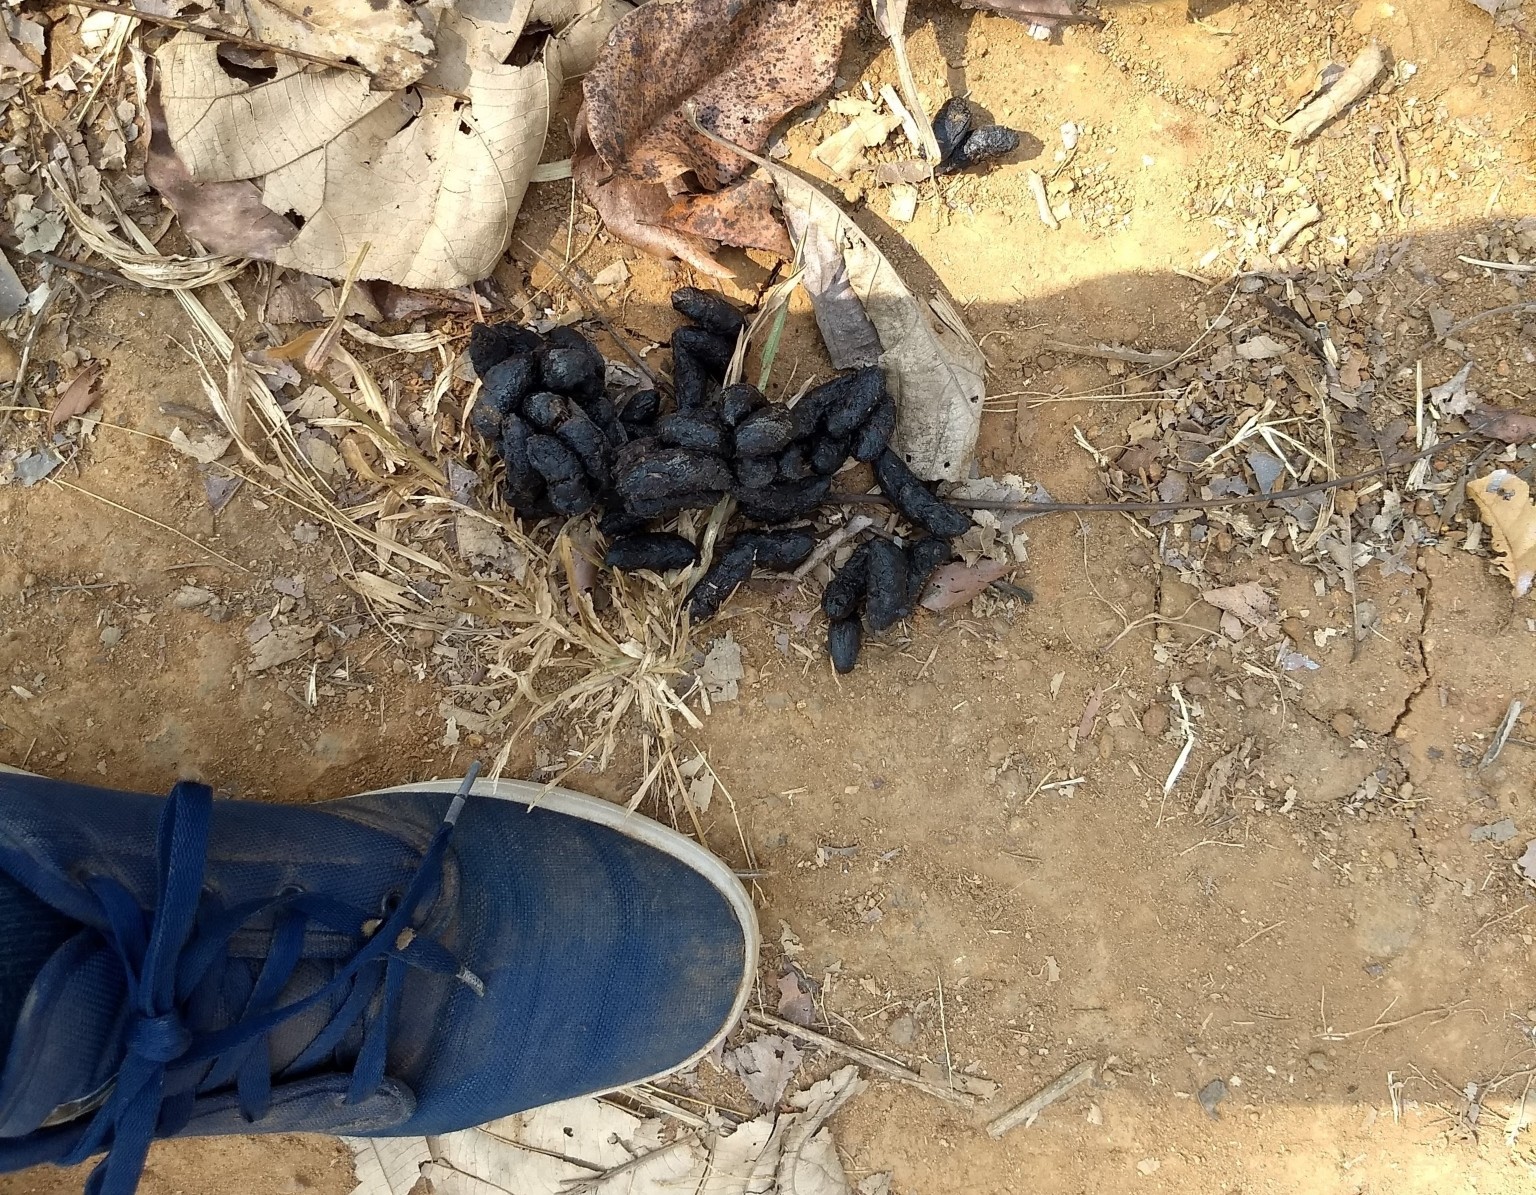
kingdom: Animalia
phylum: Chordata
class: Mammalia
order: Rodentia
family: Hystricidae
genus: Hystrix
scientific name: Hystrix indica
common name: Indian crested porcupine
